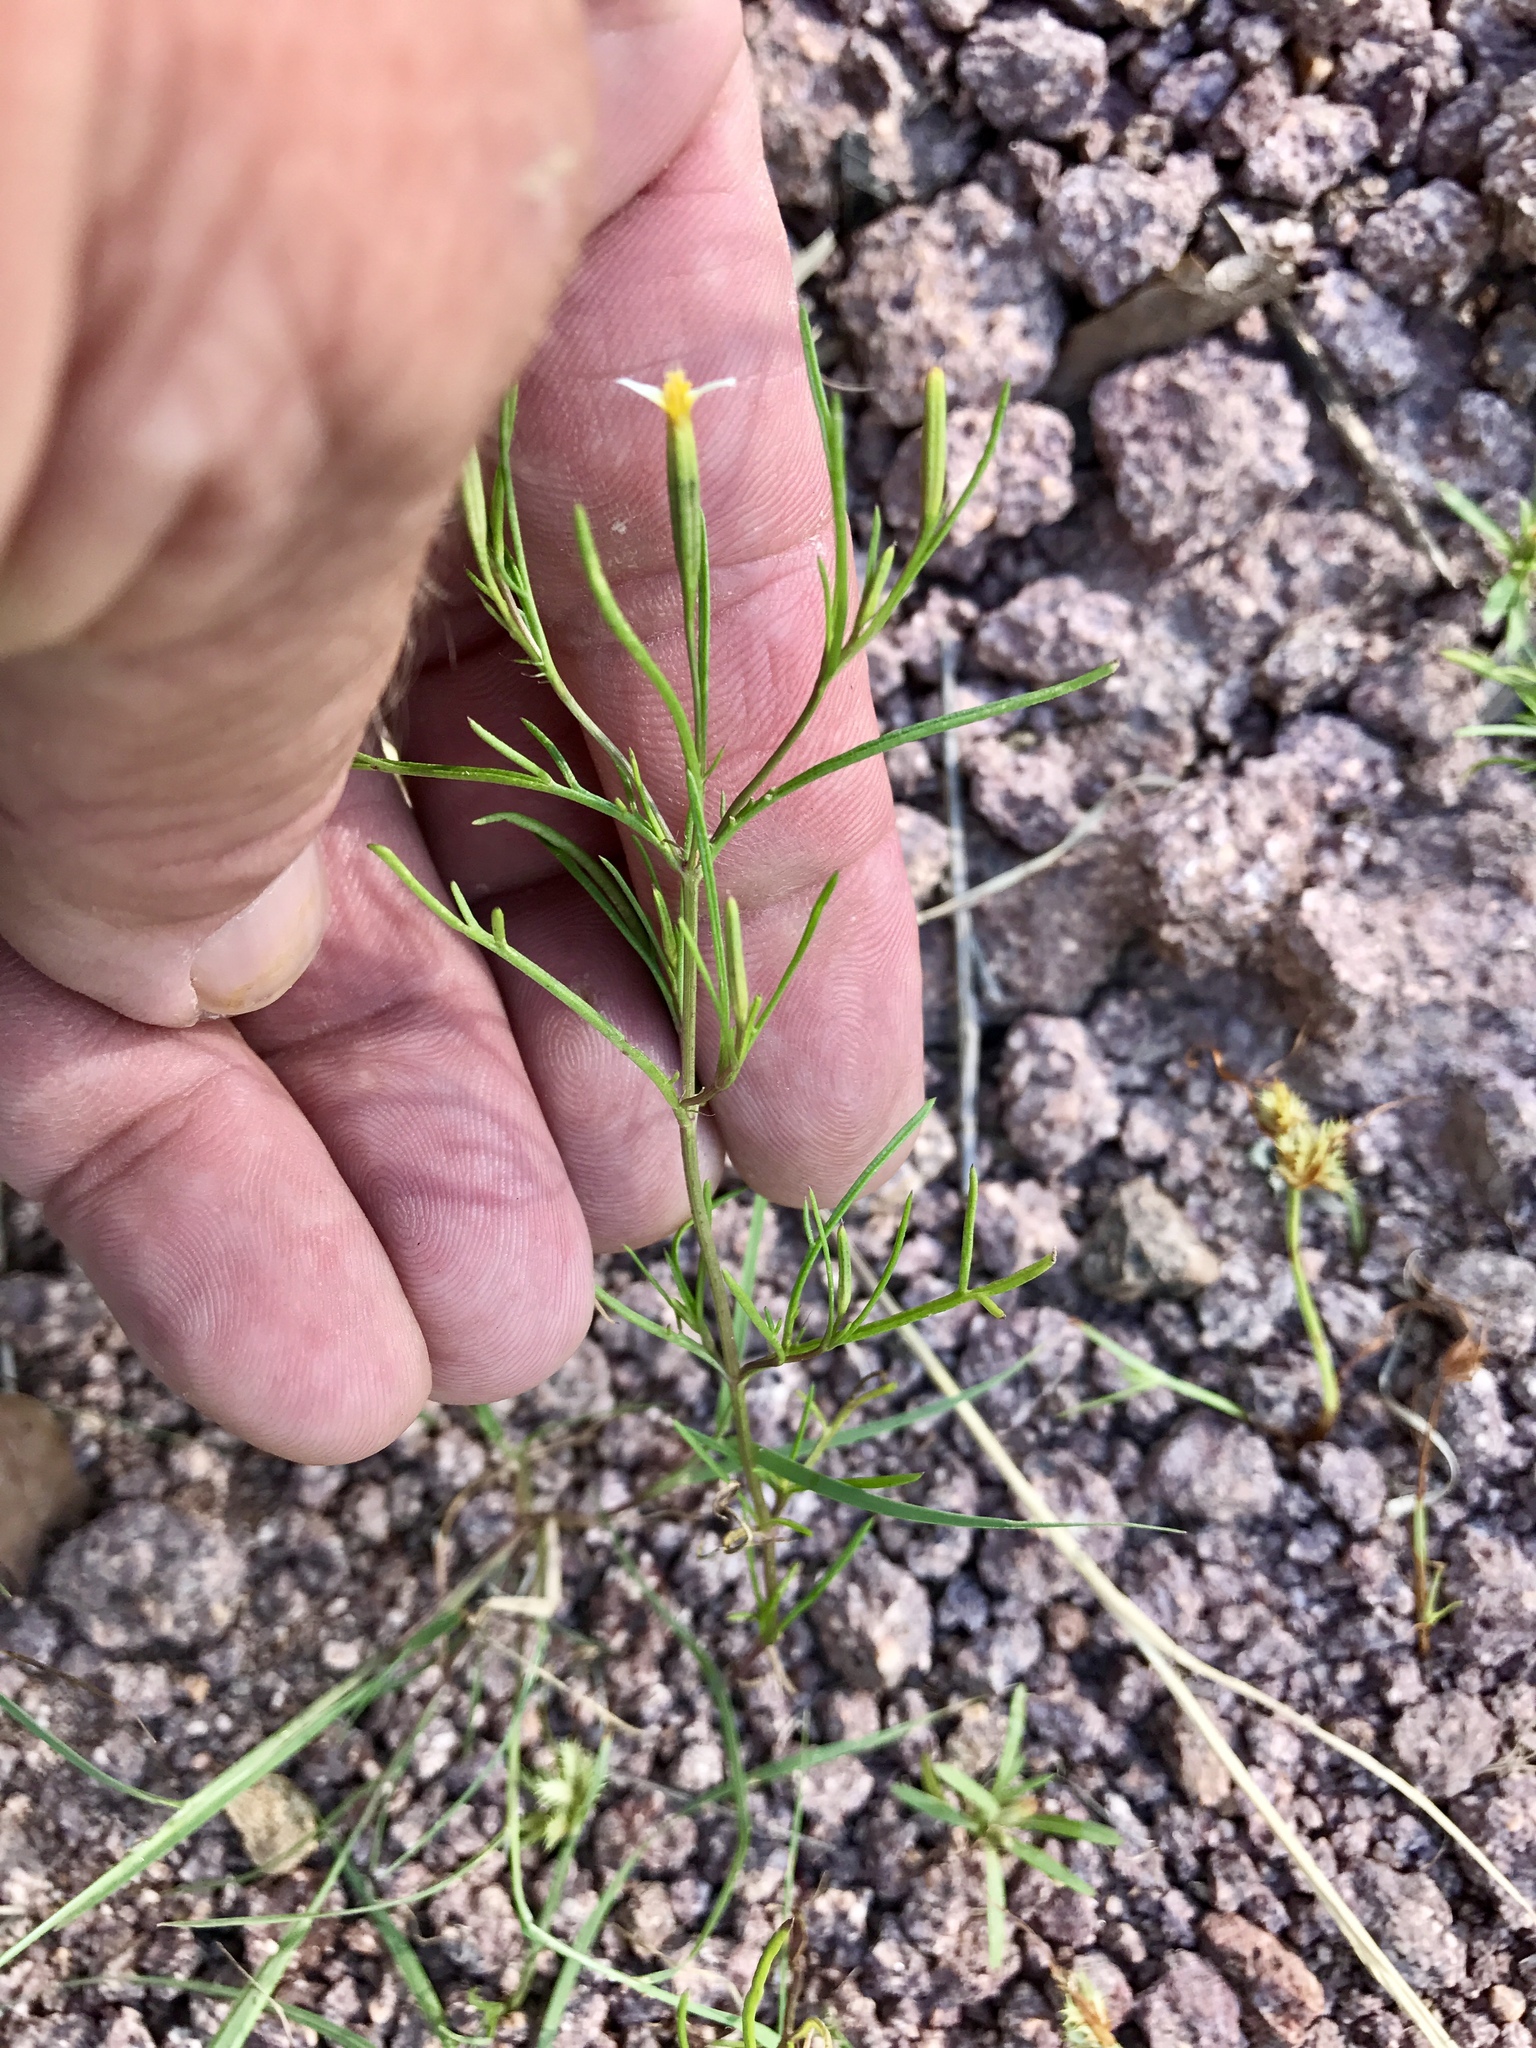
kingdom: Plantae
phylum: Tracheophyta
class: Magnoliopsida
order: Asterales
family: Asteraceae
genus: Tagetes
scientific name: Tagetes micrantha
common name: Licorice marigold
